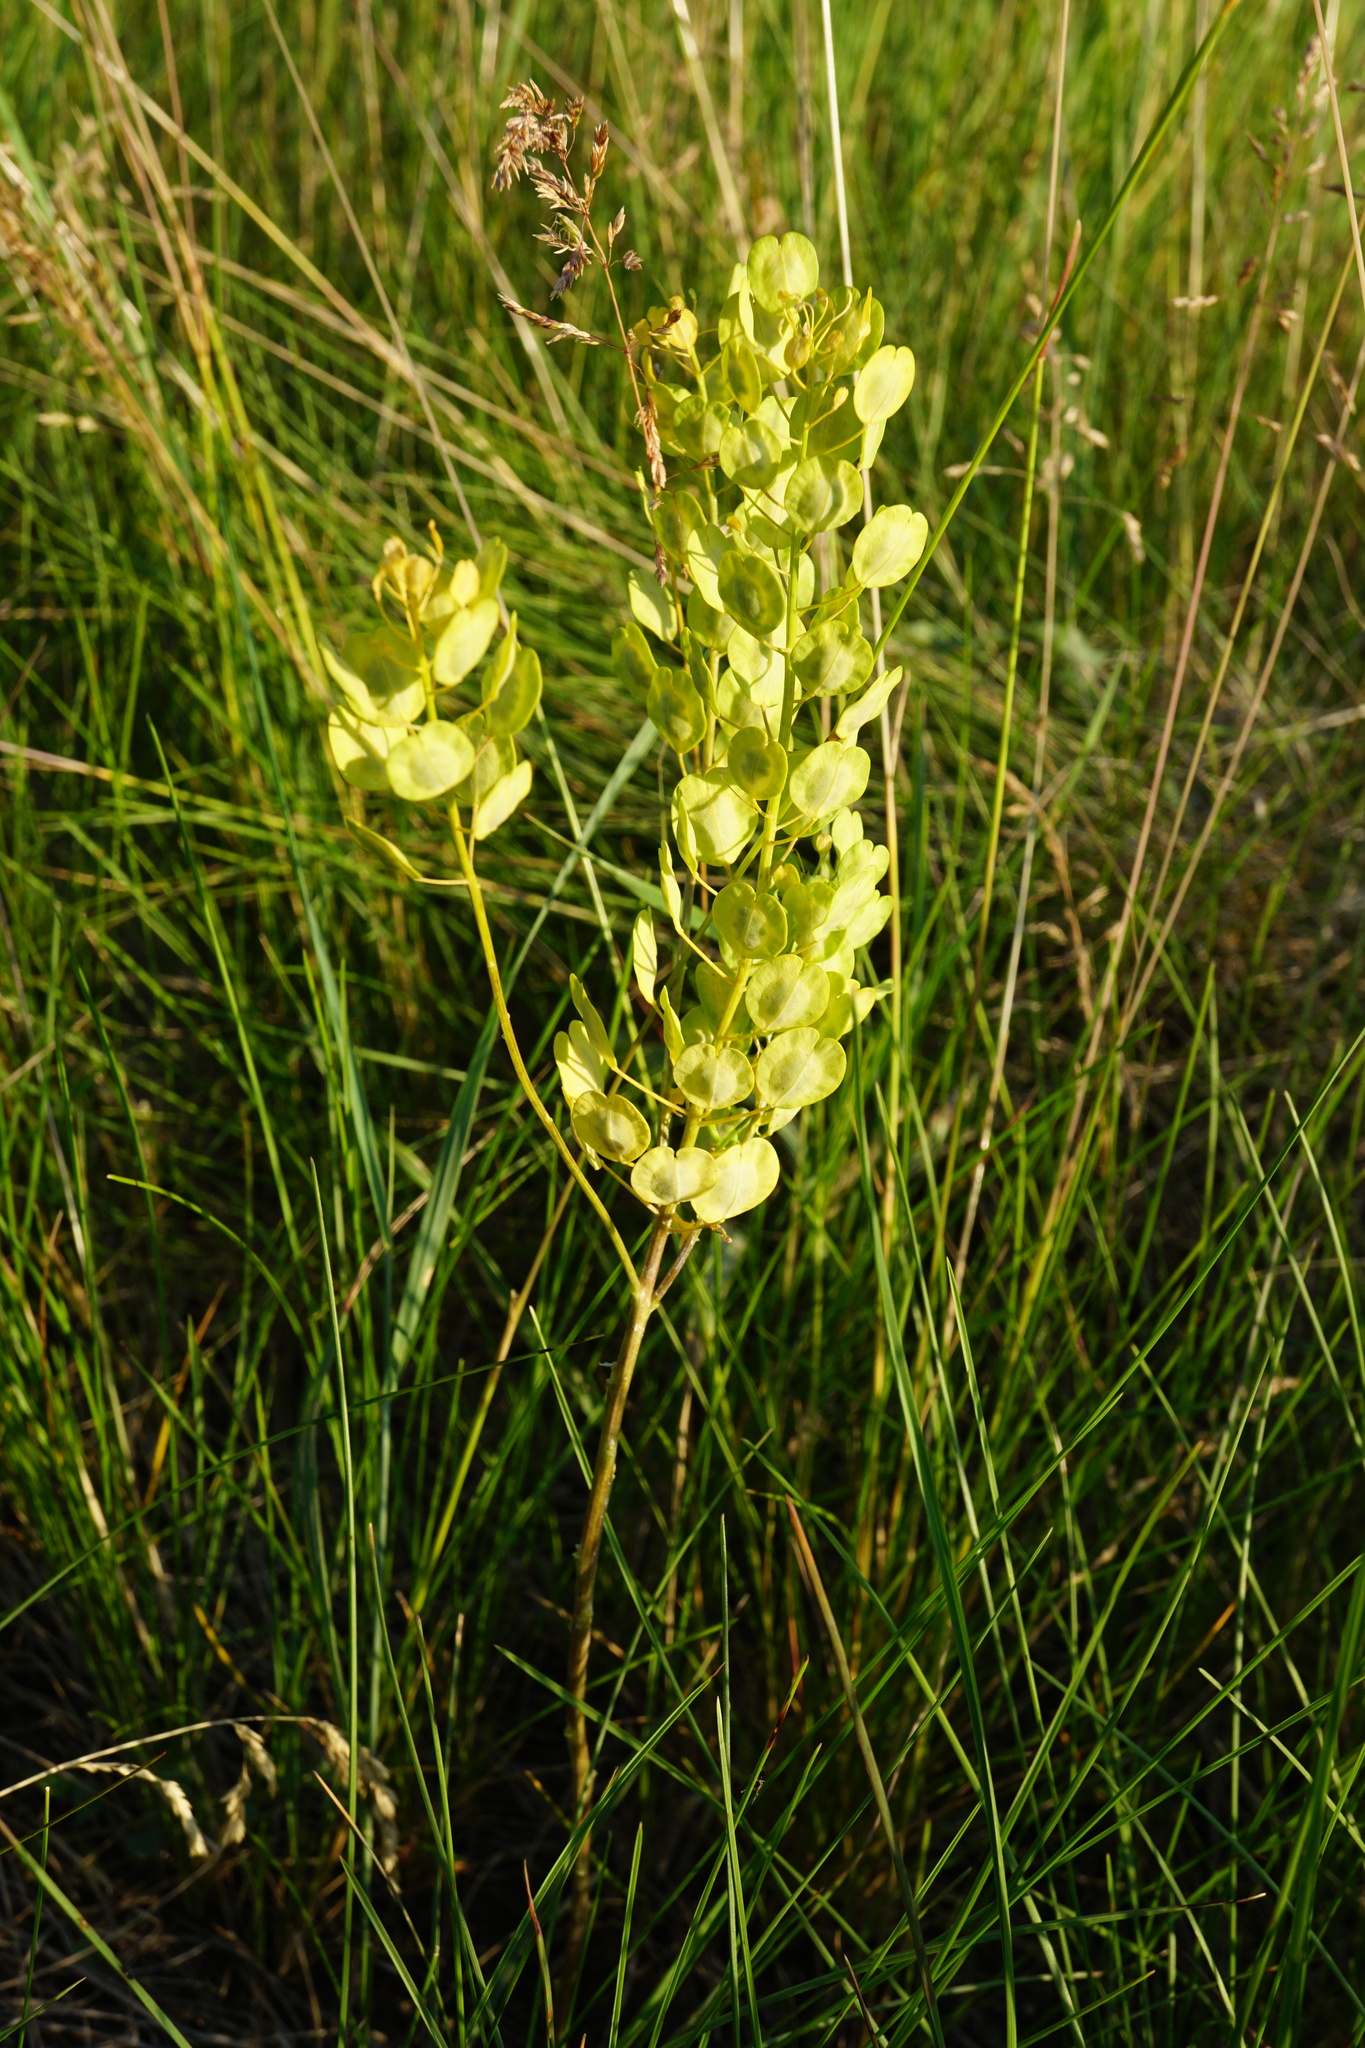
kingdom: Plantae
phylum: Tracheophyta
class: Magnoliopsida
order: Brassicales
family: Brassicaceae
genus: Thlaspi
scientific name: Thlaspi arvense
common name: Field pennycress
